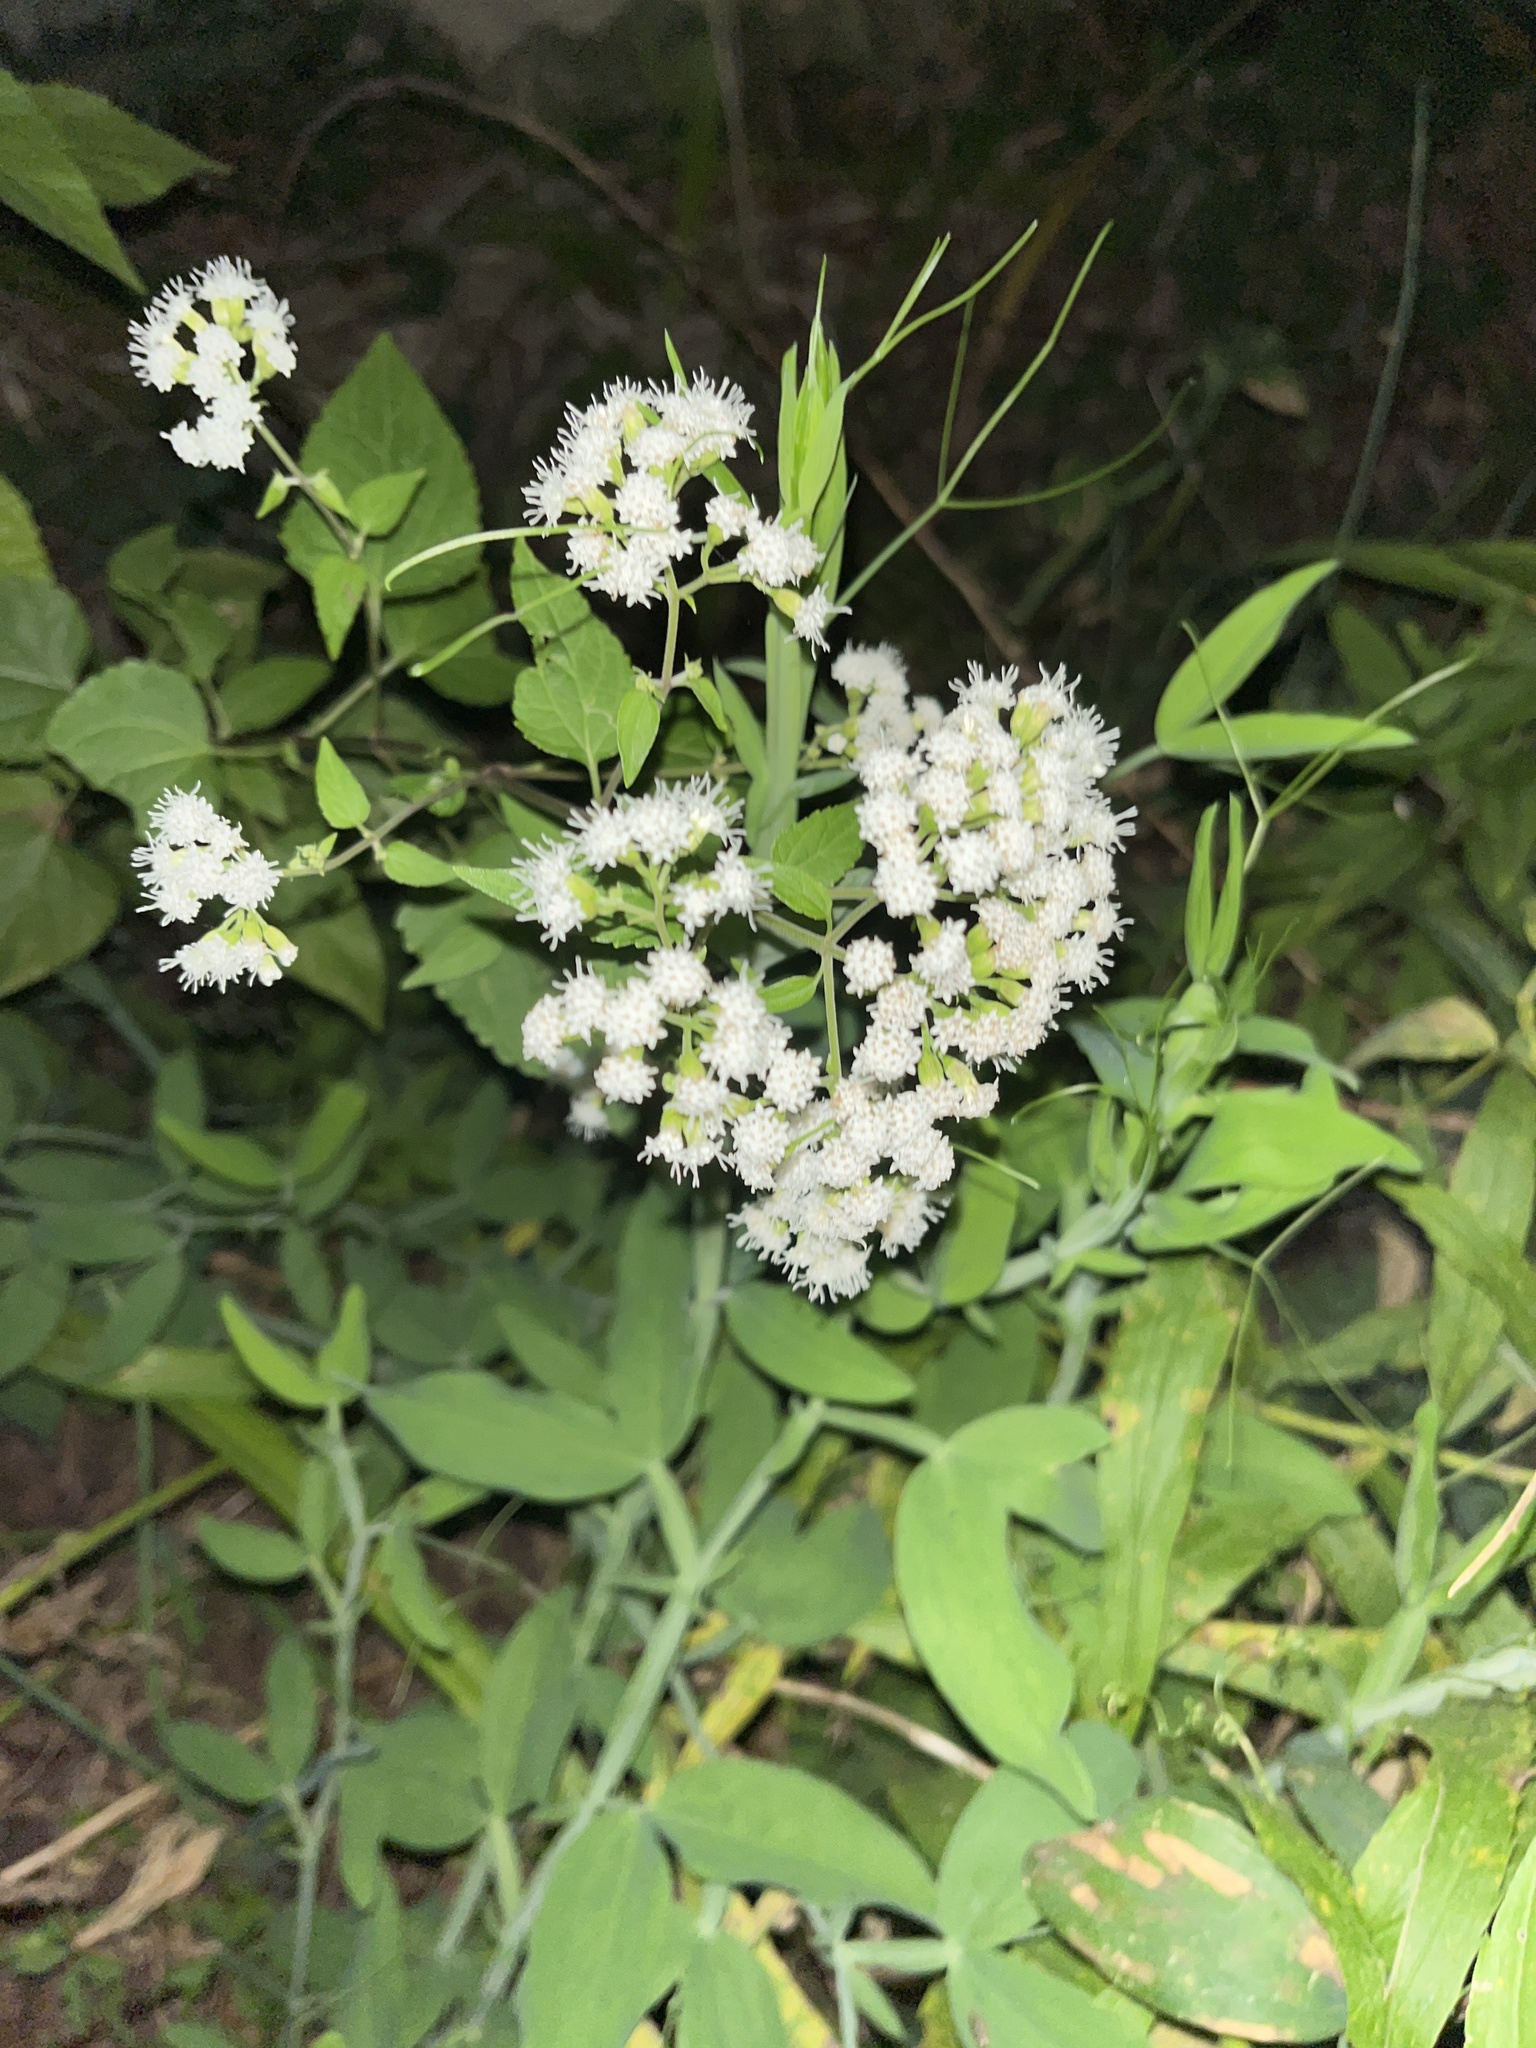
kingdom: Plantae
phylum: Tracheophyta
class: Magnoliopsida
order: Asterales
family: Asteraceae
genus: Ageratina
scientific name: Ageratina altissima
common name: White snakeroot
